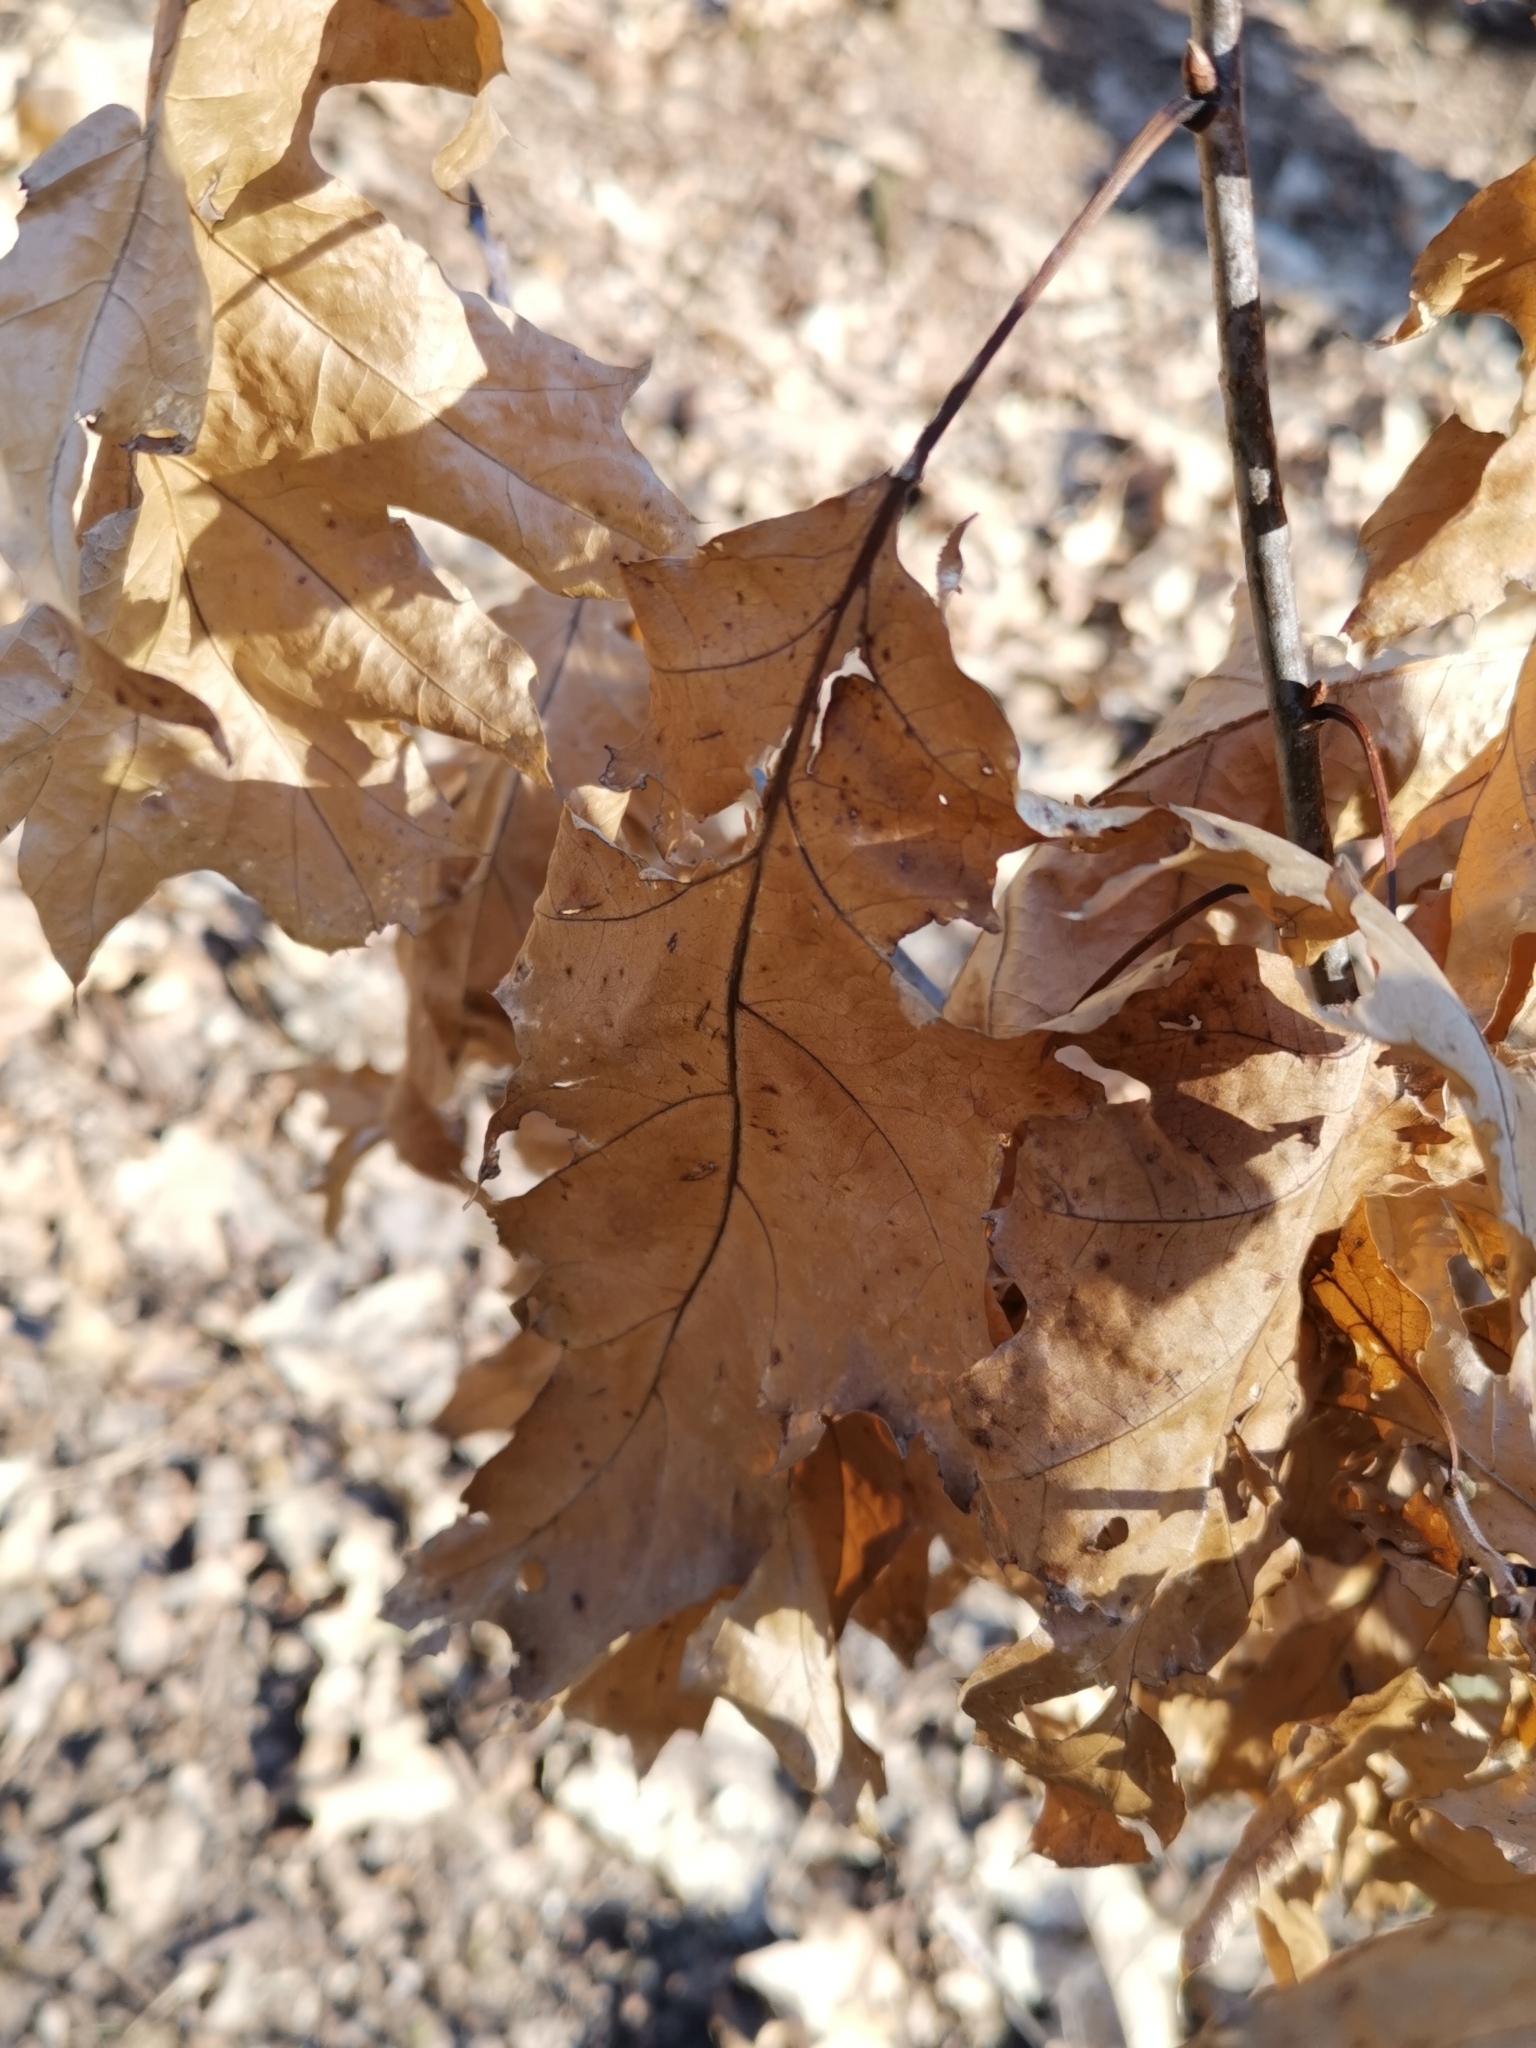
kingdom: Plantae
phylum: Tracheophyta
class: Magnoliopsida
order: Fagales
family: Fagaceae
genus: Quercus
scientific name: Quercus rubra
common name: Red oak
